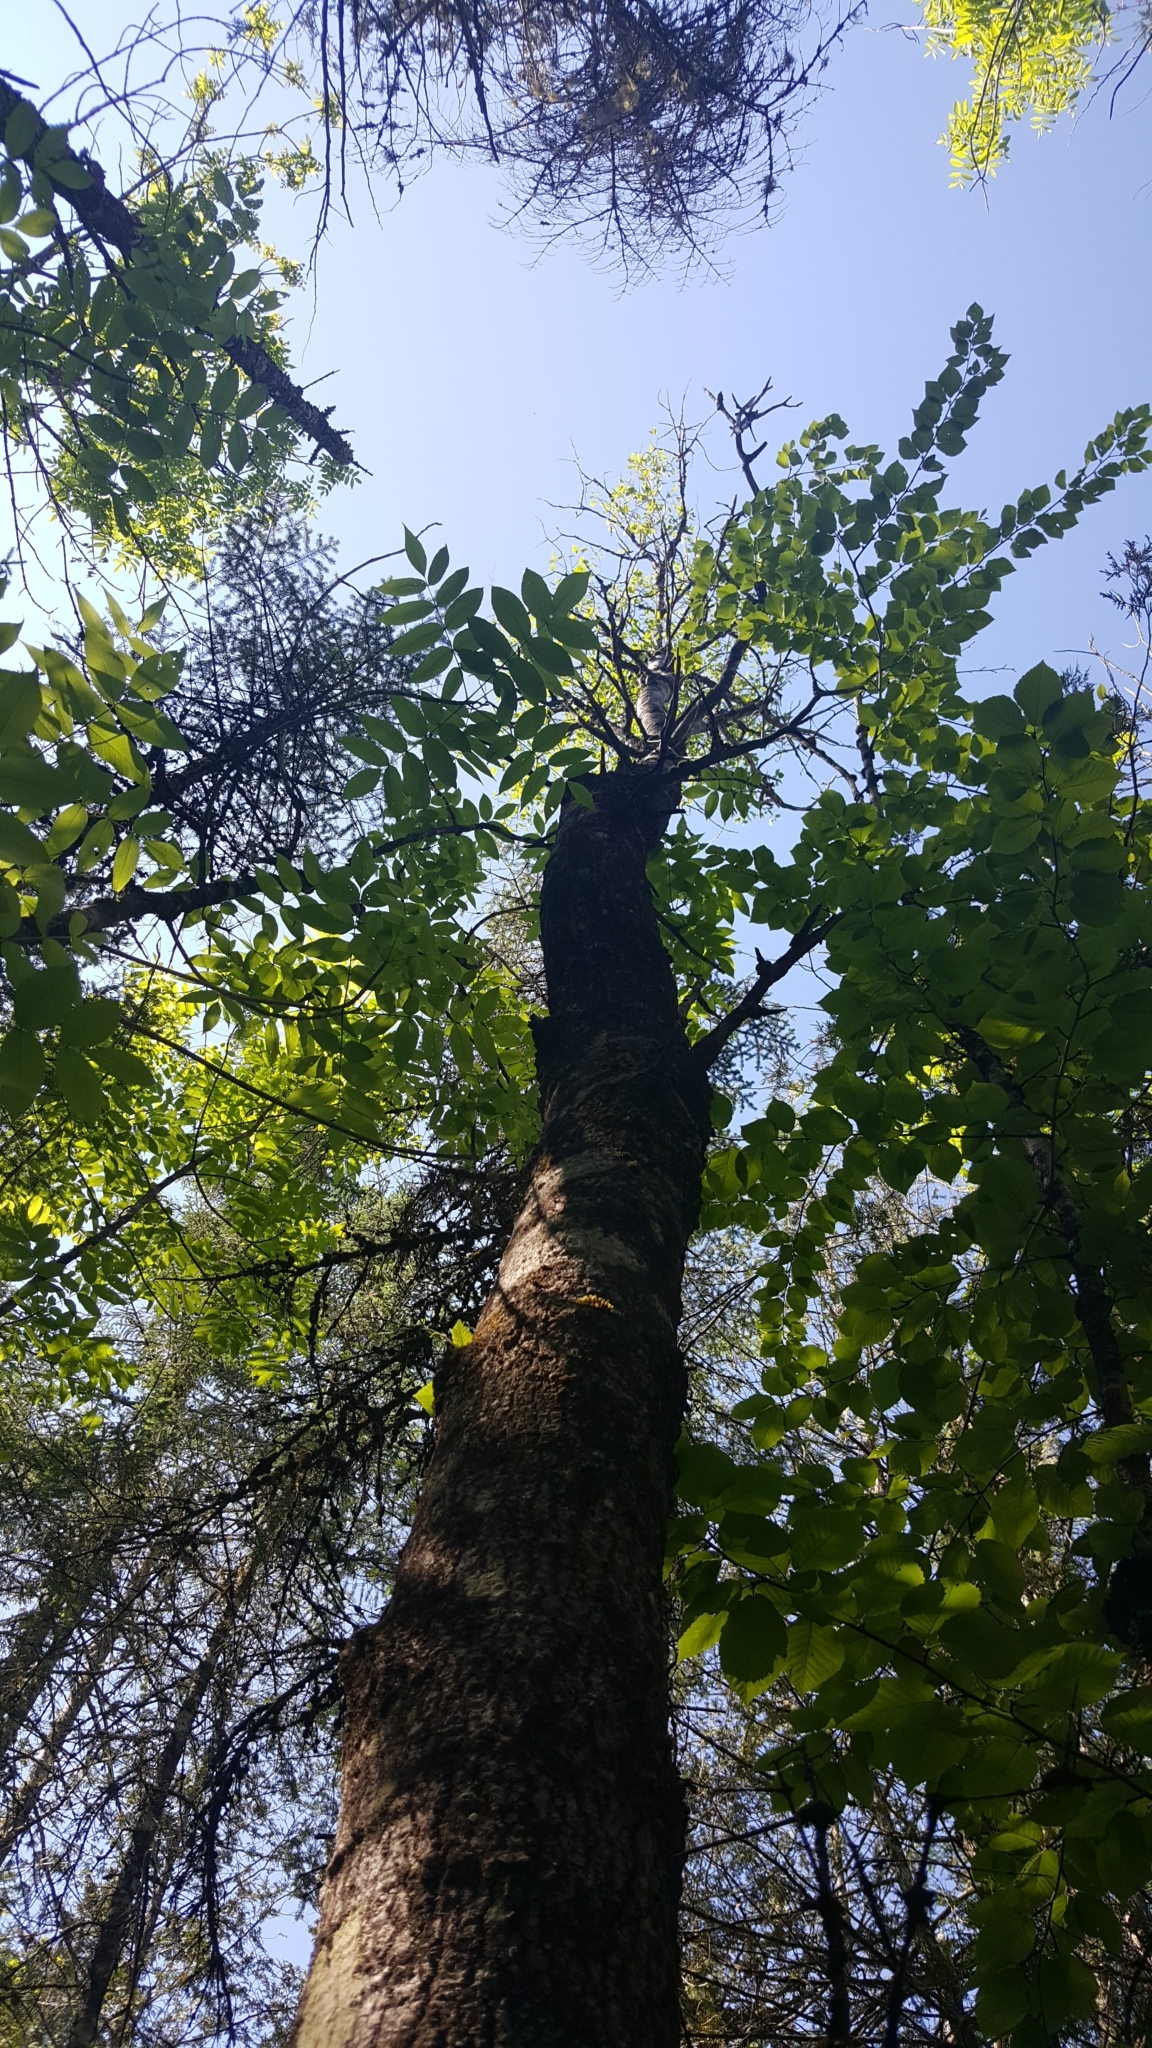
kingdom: Plantae
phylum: Tracheophyta
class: Magnoliopsida
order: Malpighiales
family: Salicaceae
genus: Populus
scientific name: Populus tremuloides
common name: Quaking aspen
